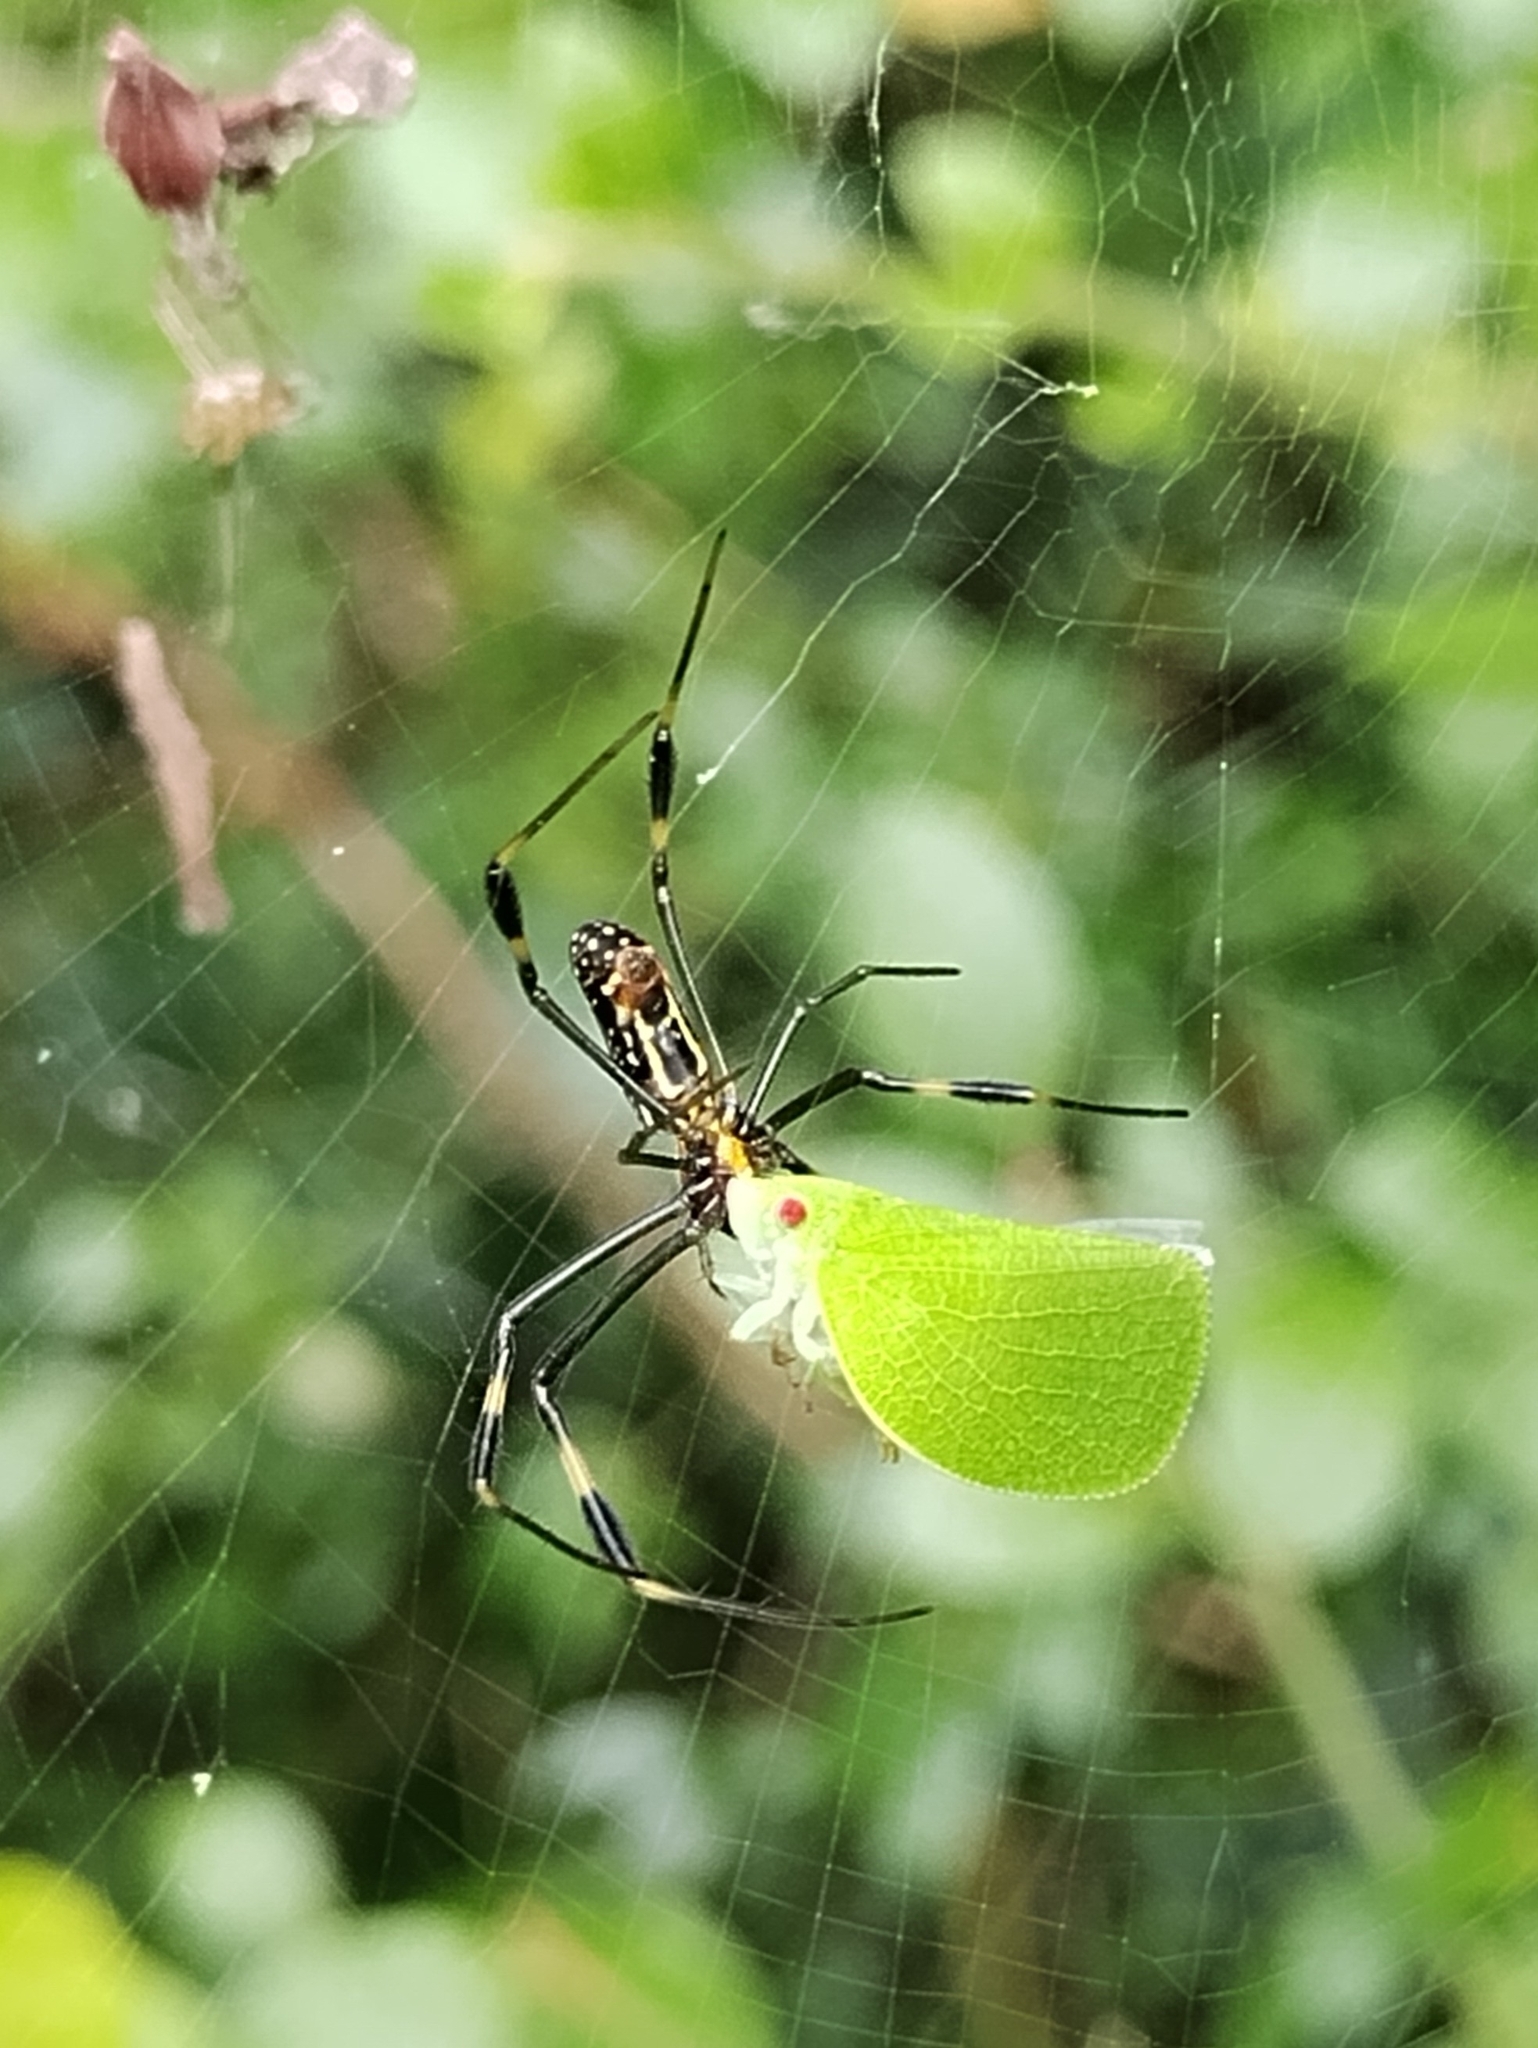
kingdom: Animalia
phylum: Arthropoda
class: Arachnida
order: Araneae
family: Araneidae
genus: Trichonephila
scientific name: Trichonephila clavipes
